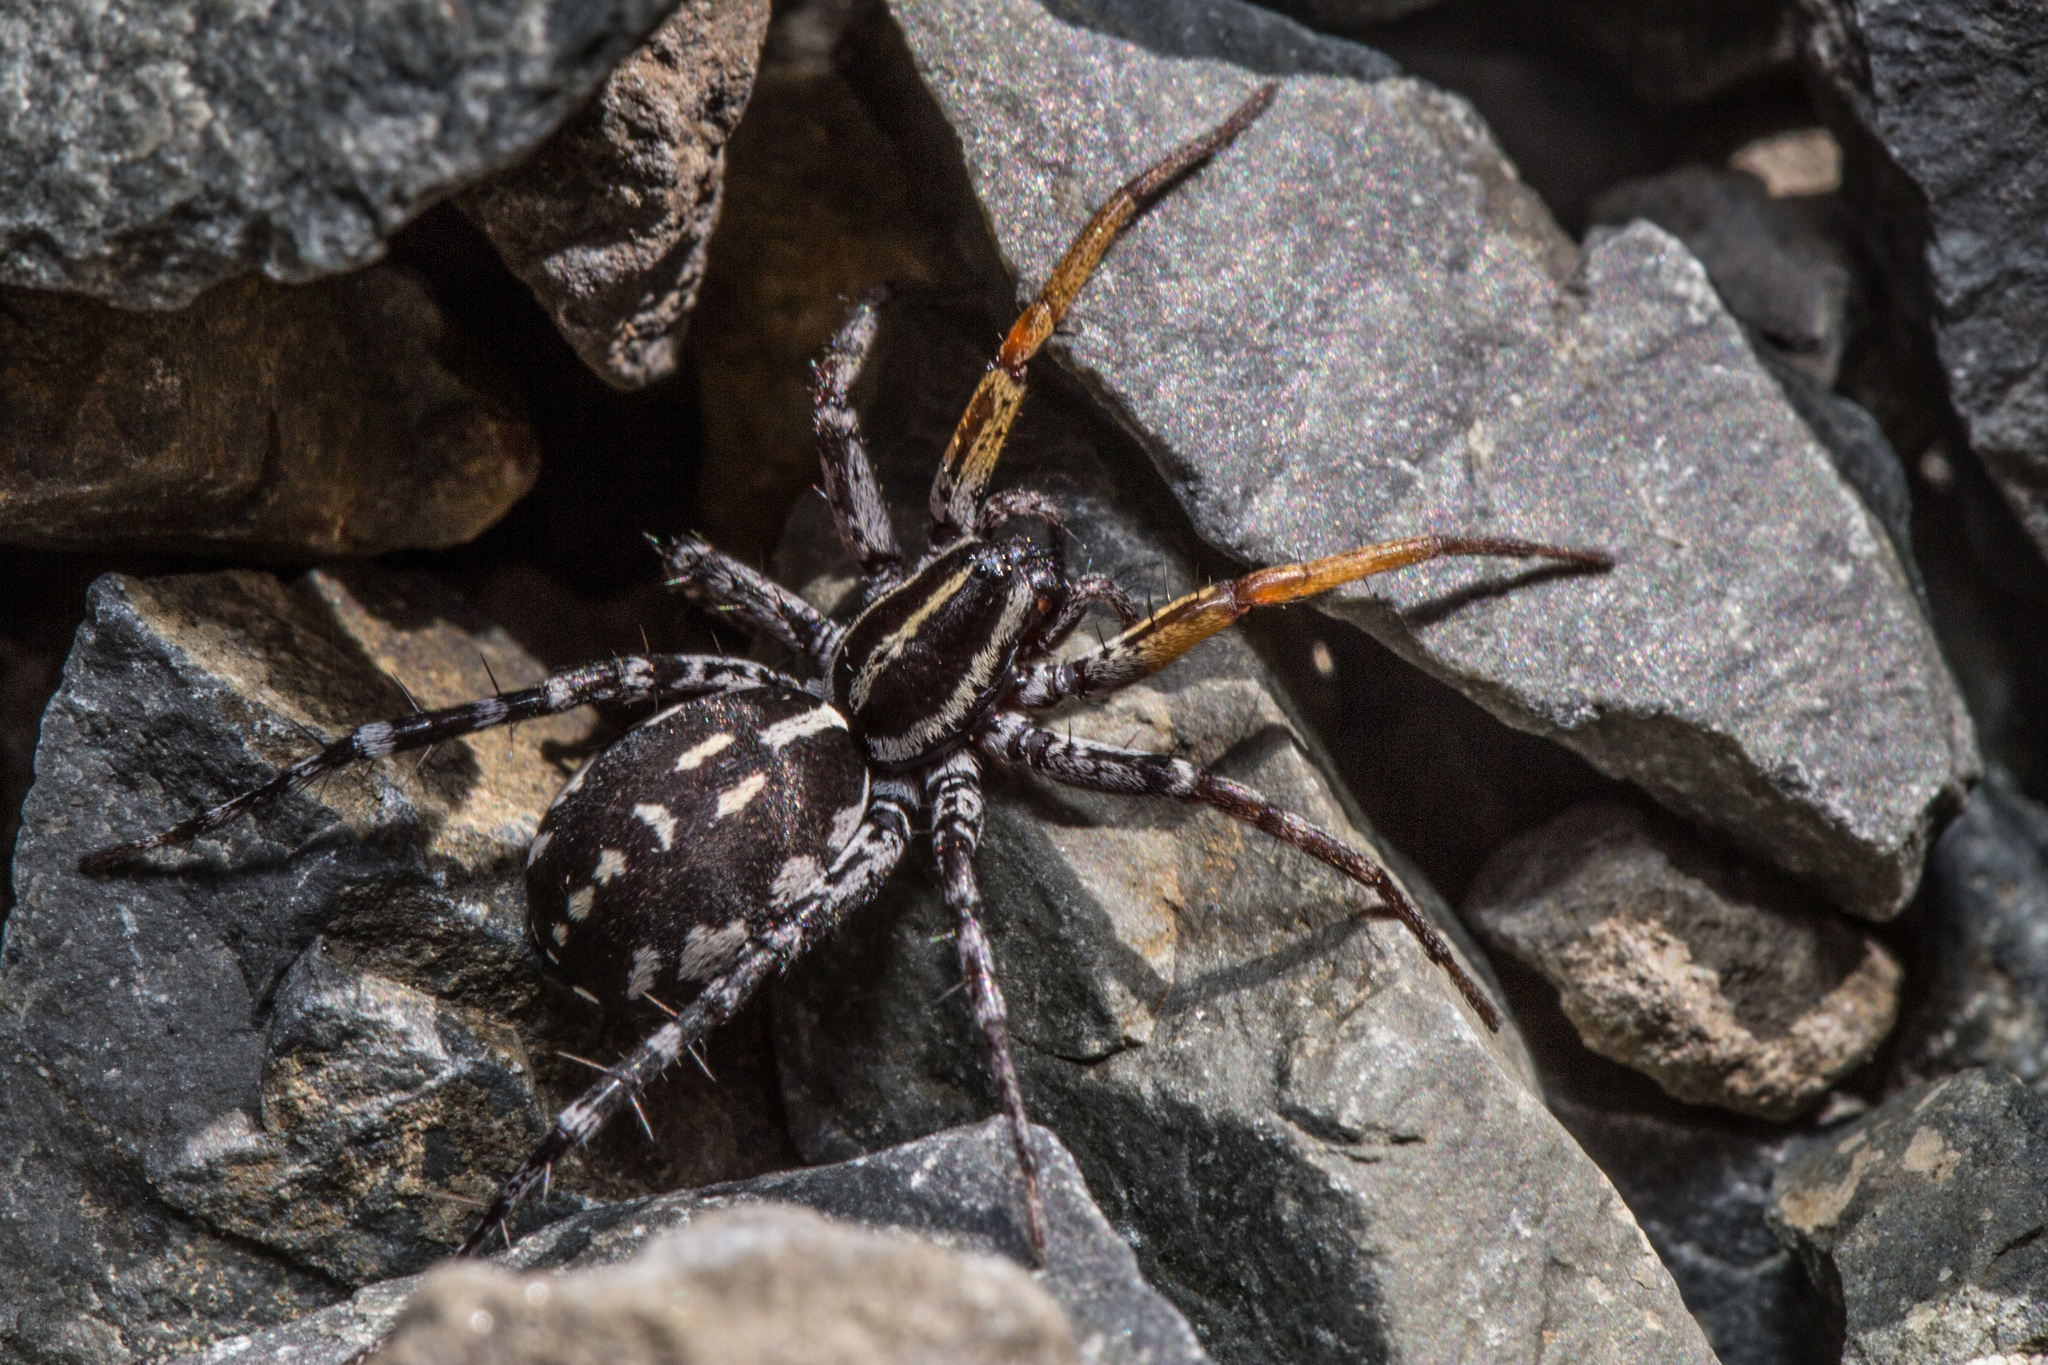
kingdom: Animalia
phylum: Arthropoda
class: Arachnida
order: Araneae
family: Corinnidae
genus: Nyssus
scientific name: Nyssus coloripes
